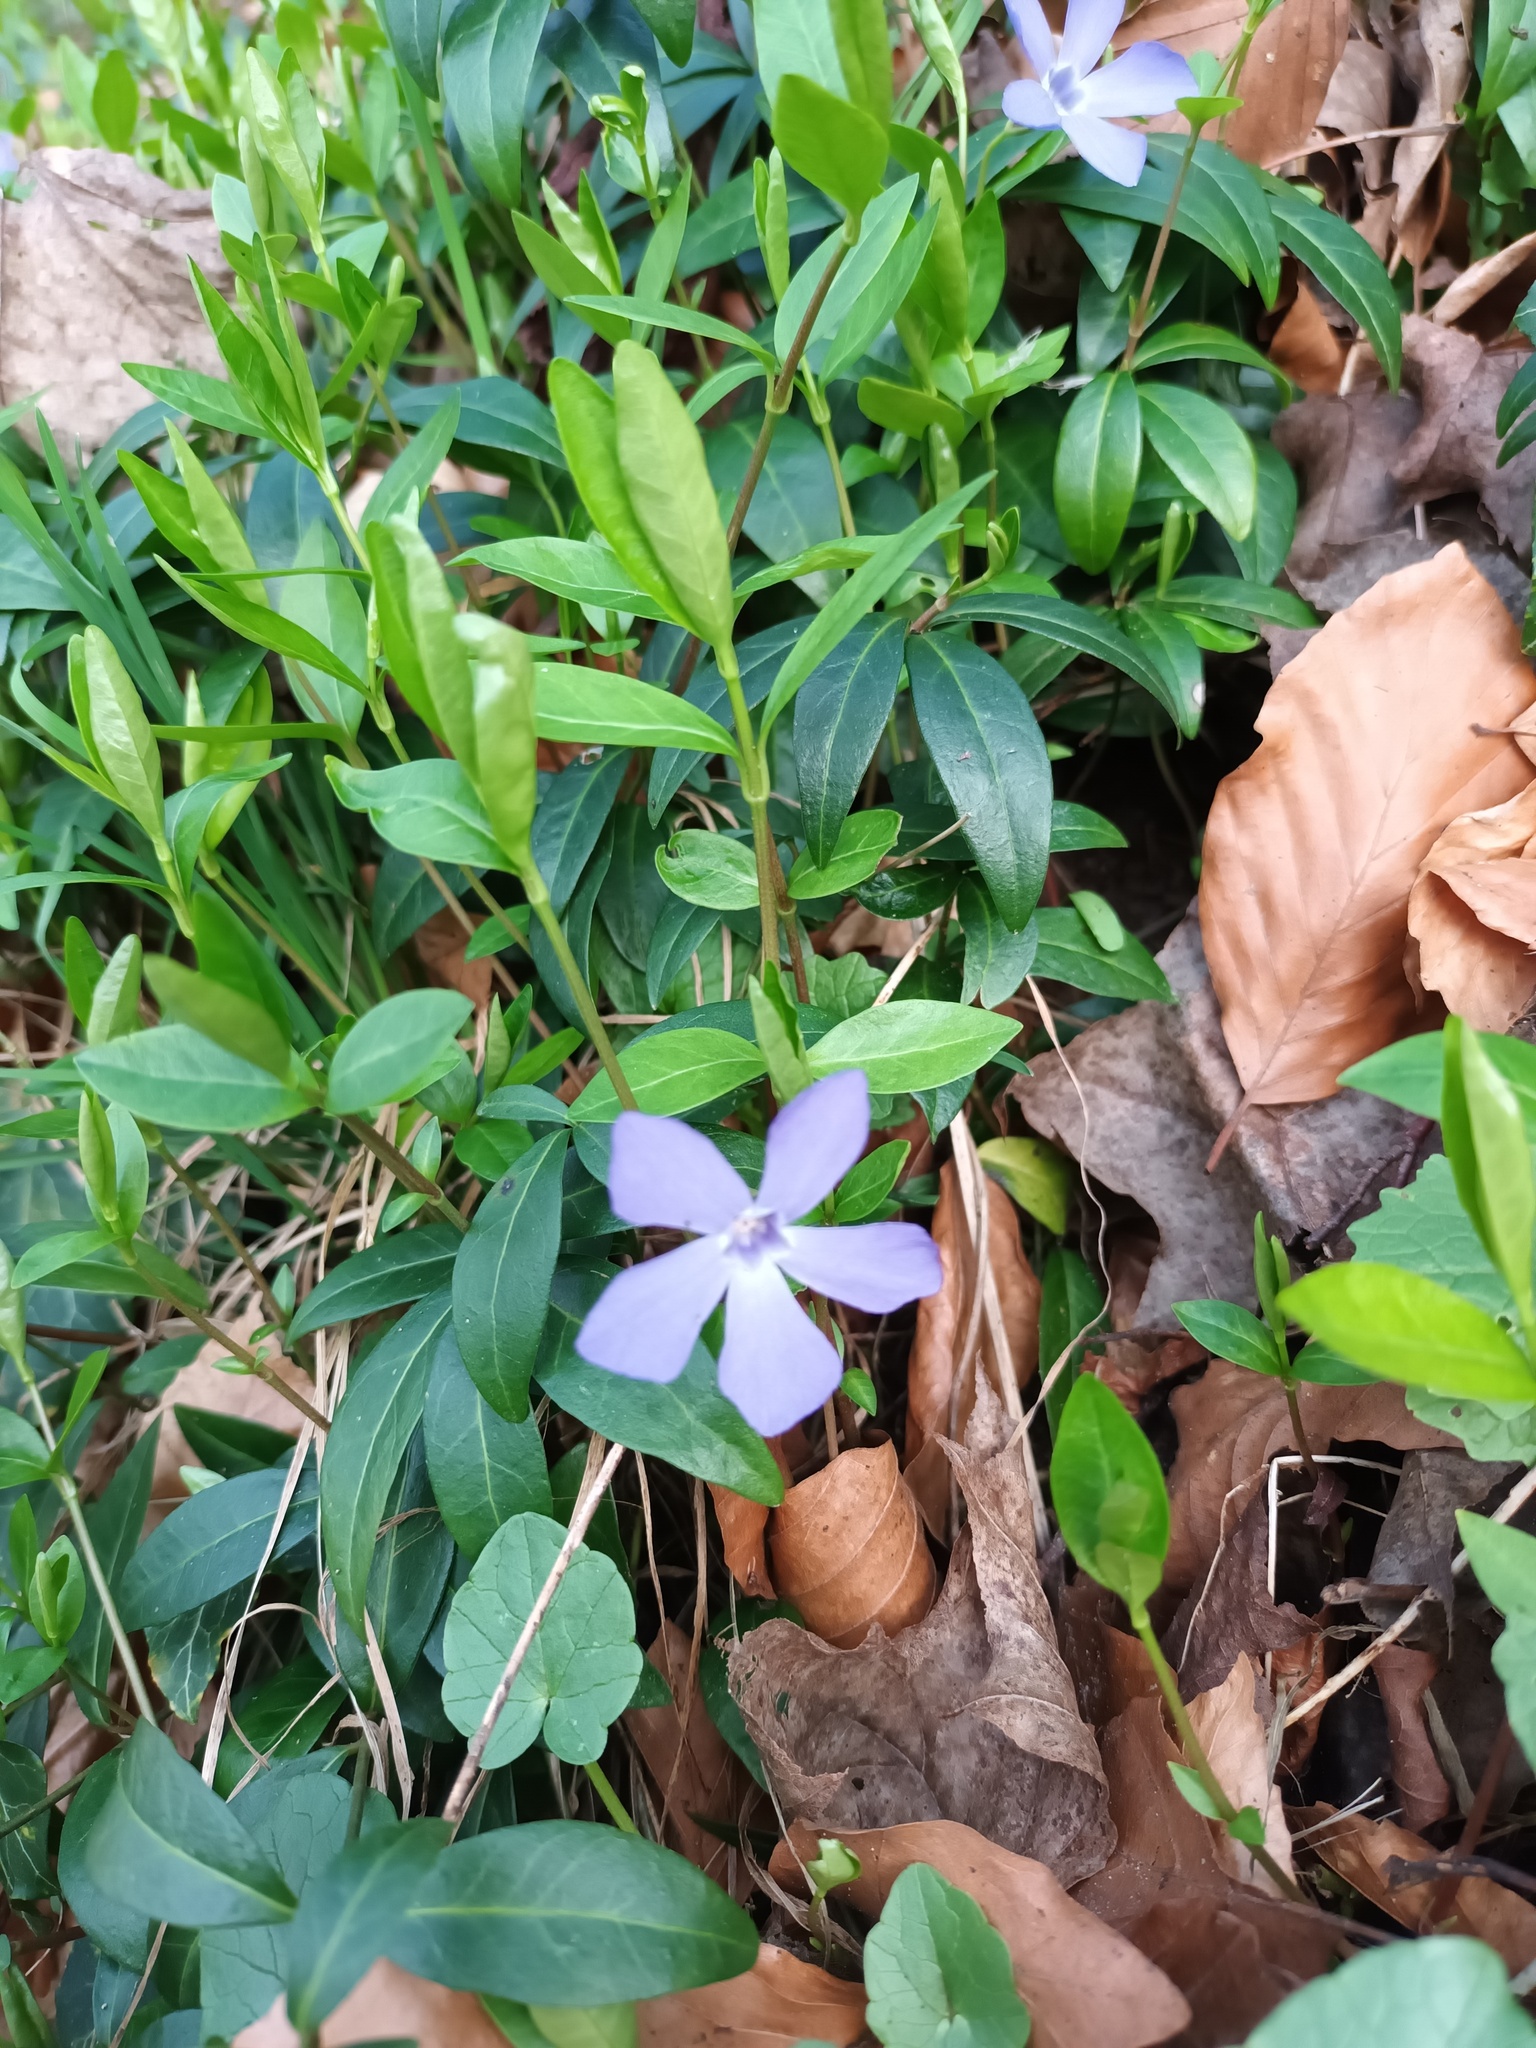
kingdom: Plantae
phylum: Tracheophyta
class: Magnoliopsida
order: Gentianales
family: Apocynaceae
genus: Vinca
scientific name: Vinca minor
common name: Lesser periwinkle
